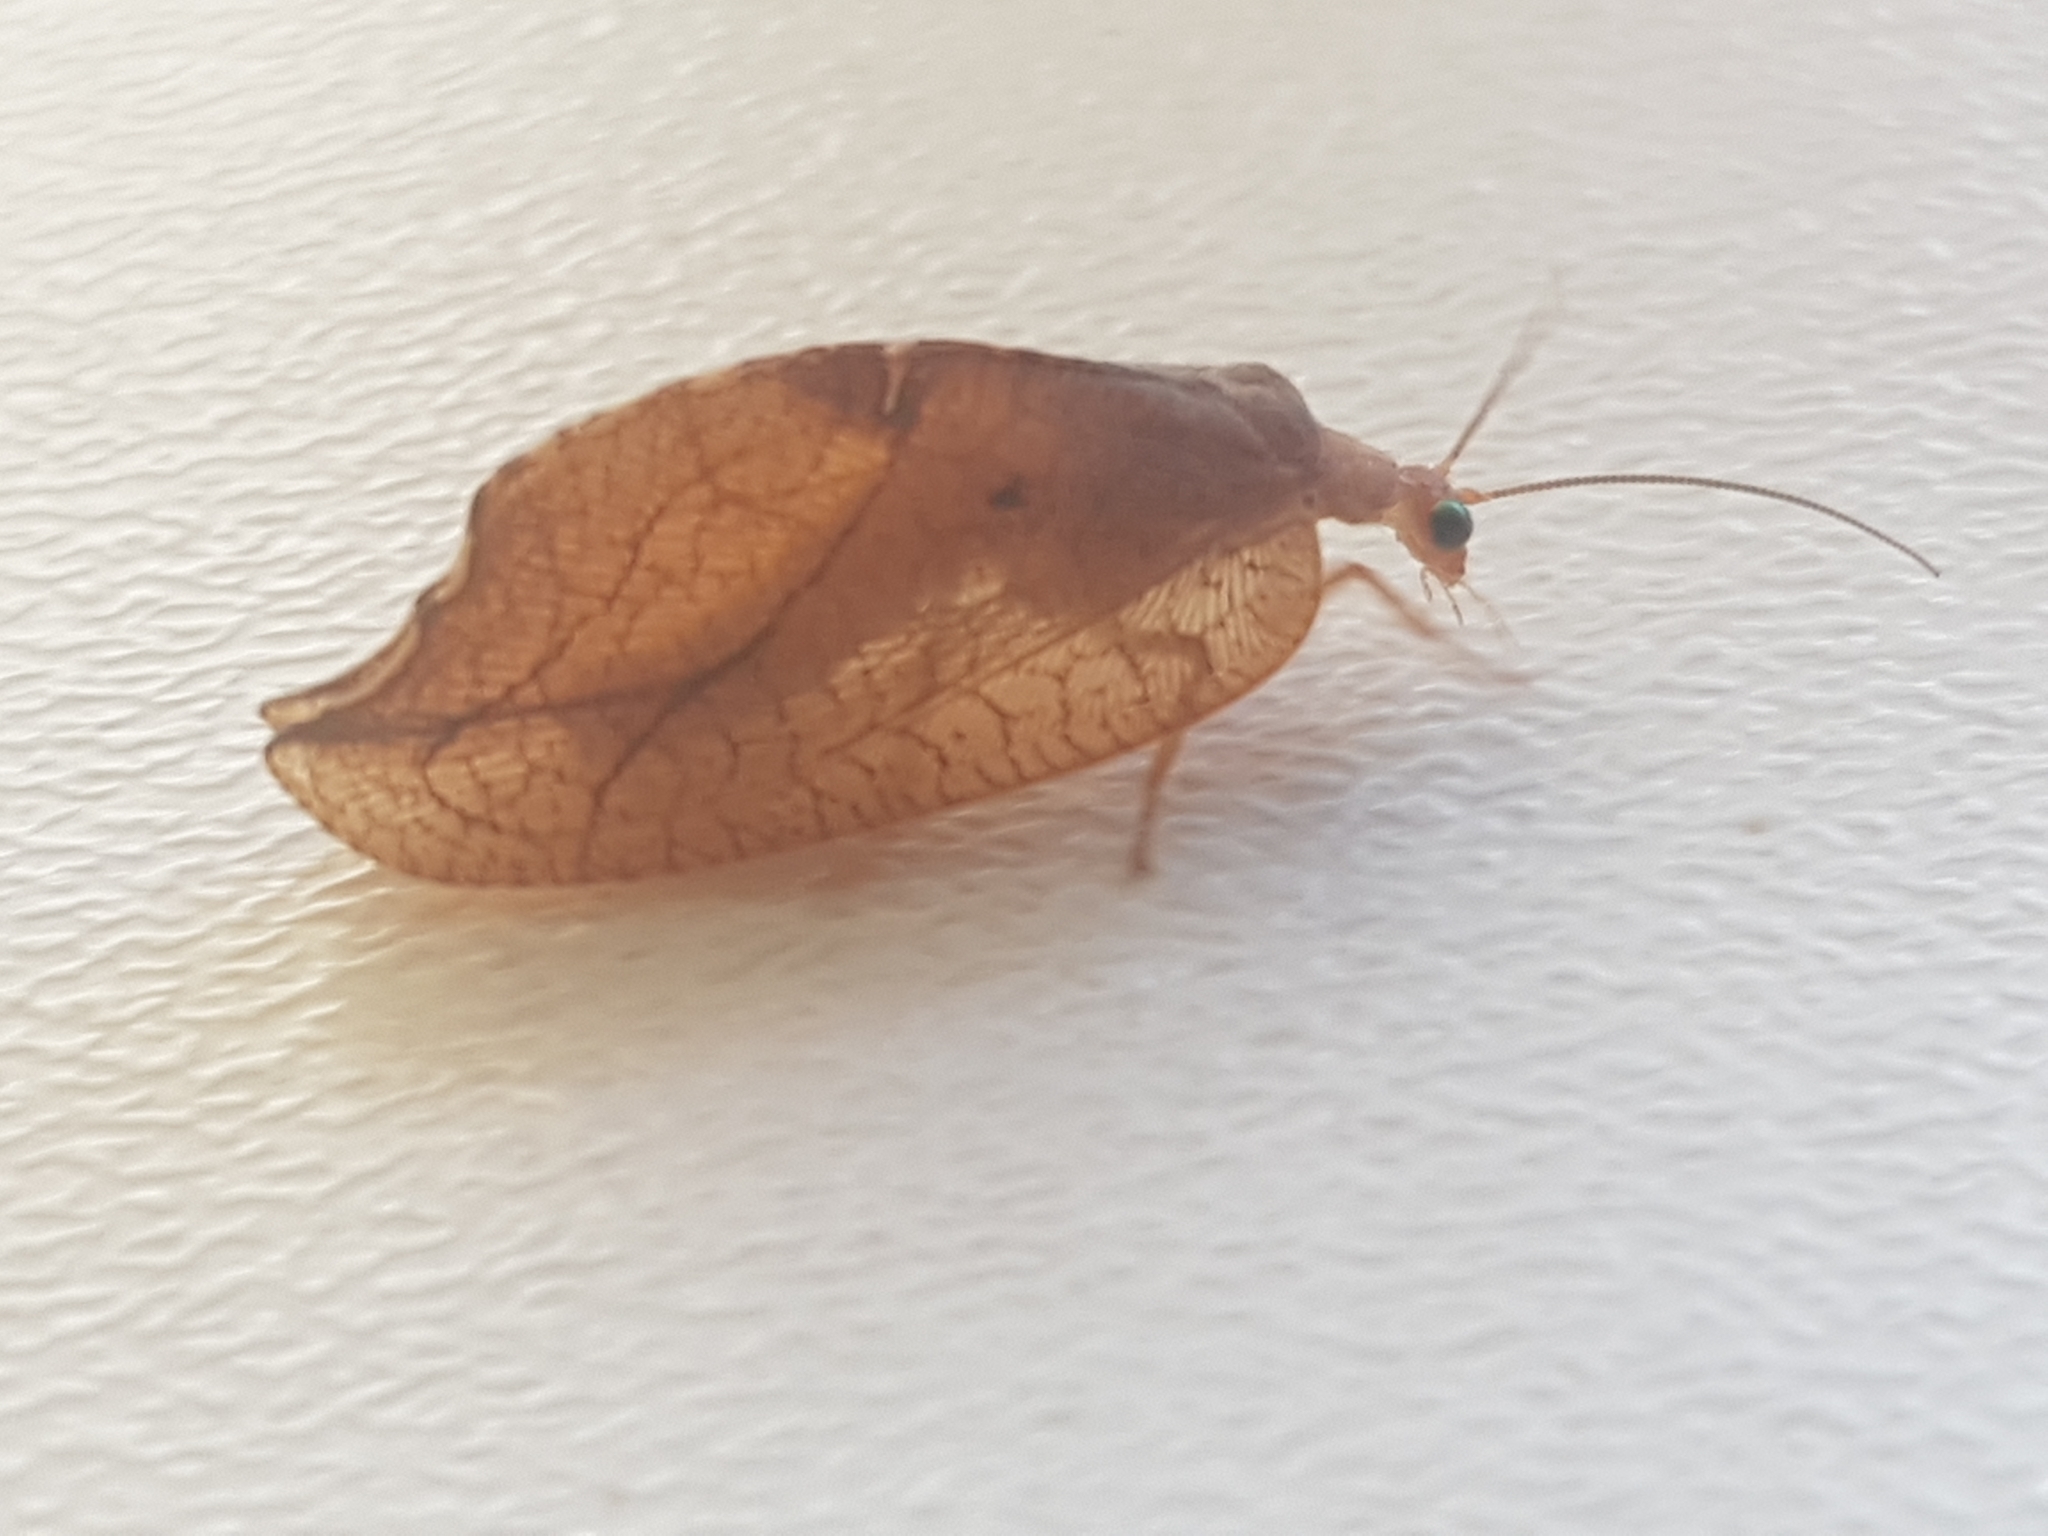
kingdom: Animalia
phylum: Arthropoda
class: Insecta
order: Neuroptera
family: Hemerobiidae
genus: Drepanepteryx
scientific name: Drepanepteryx phalaenoides
